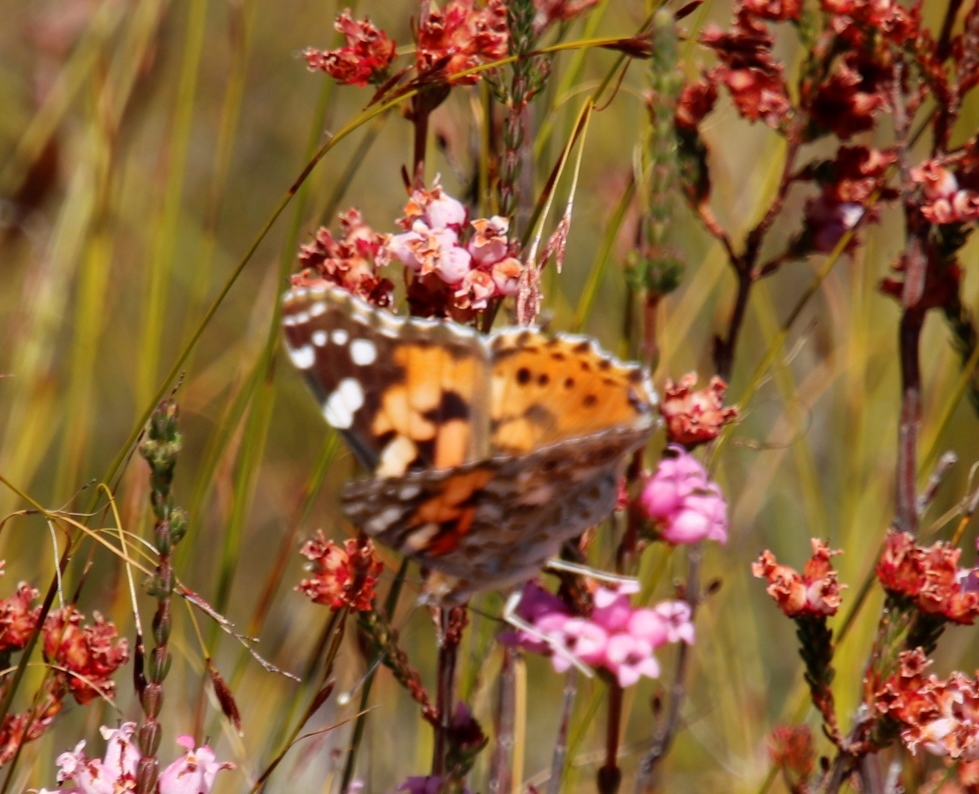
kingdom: Animalia
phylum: Arthropoda
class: Insecta
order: Lepidoptera
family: Nymphalidae
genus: Vanessa
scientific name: Vanessa cardui
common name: Painted lady
